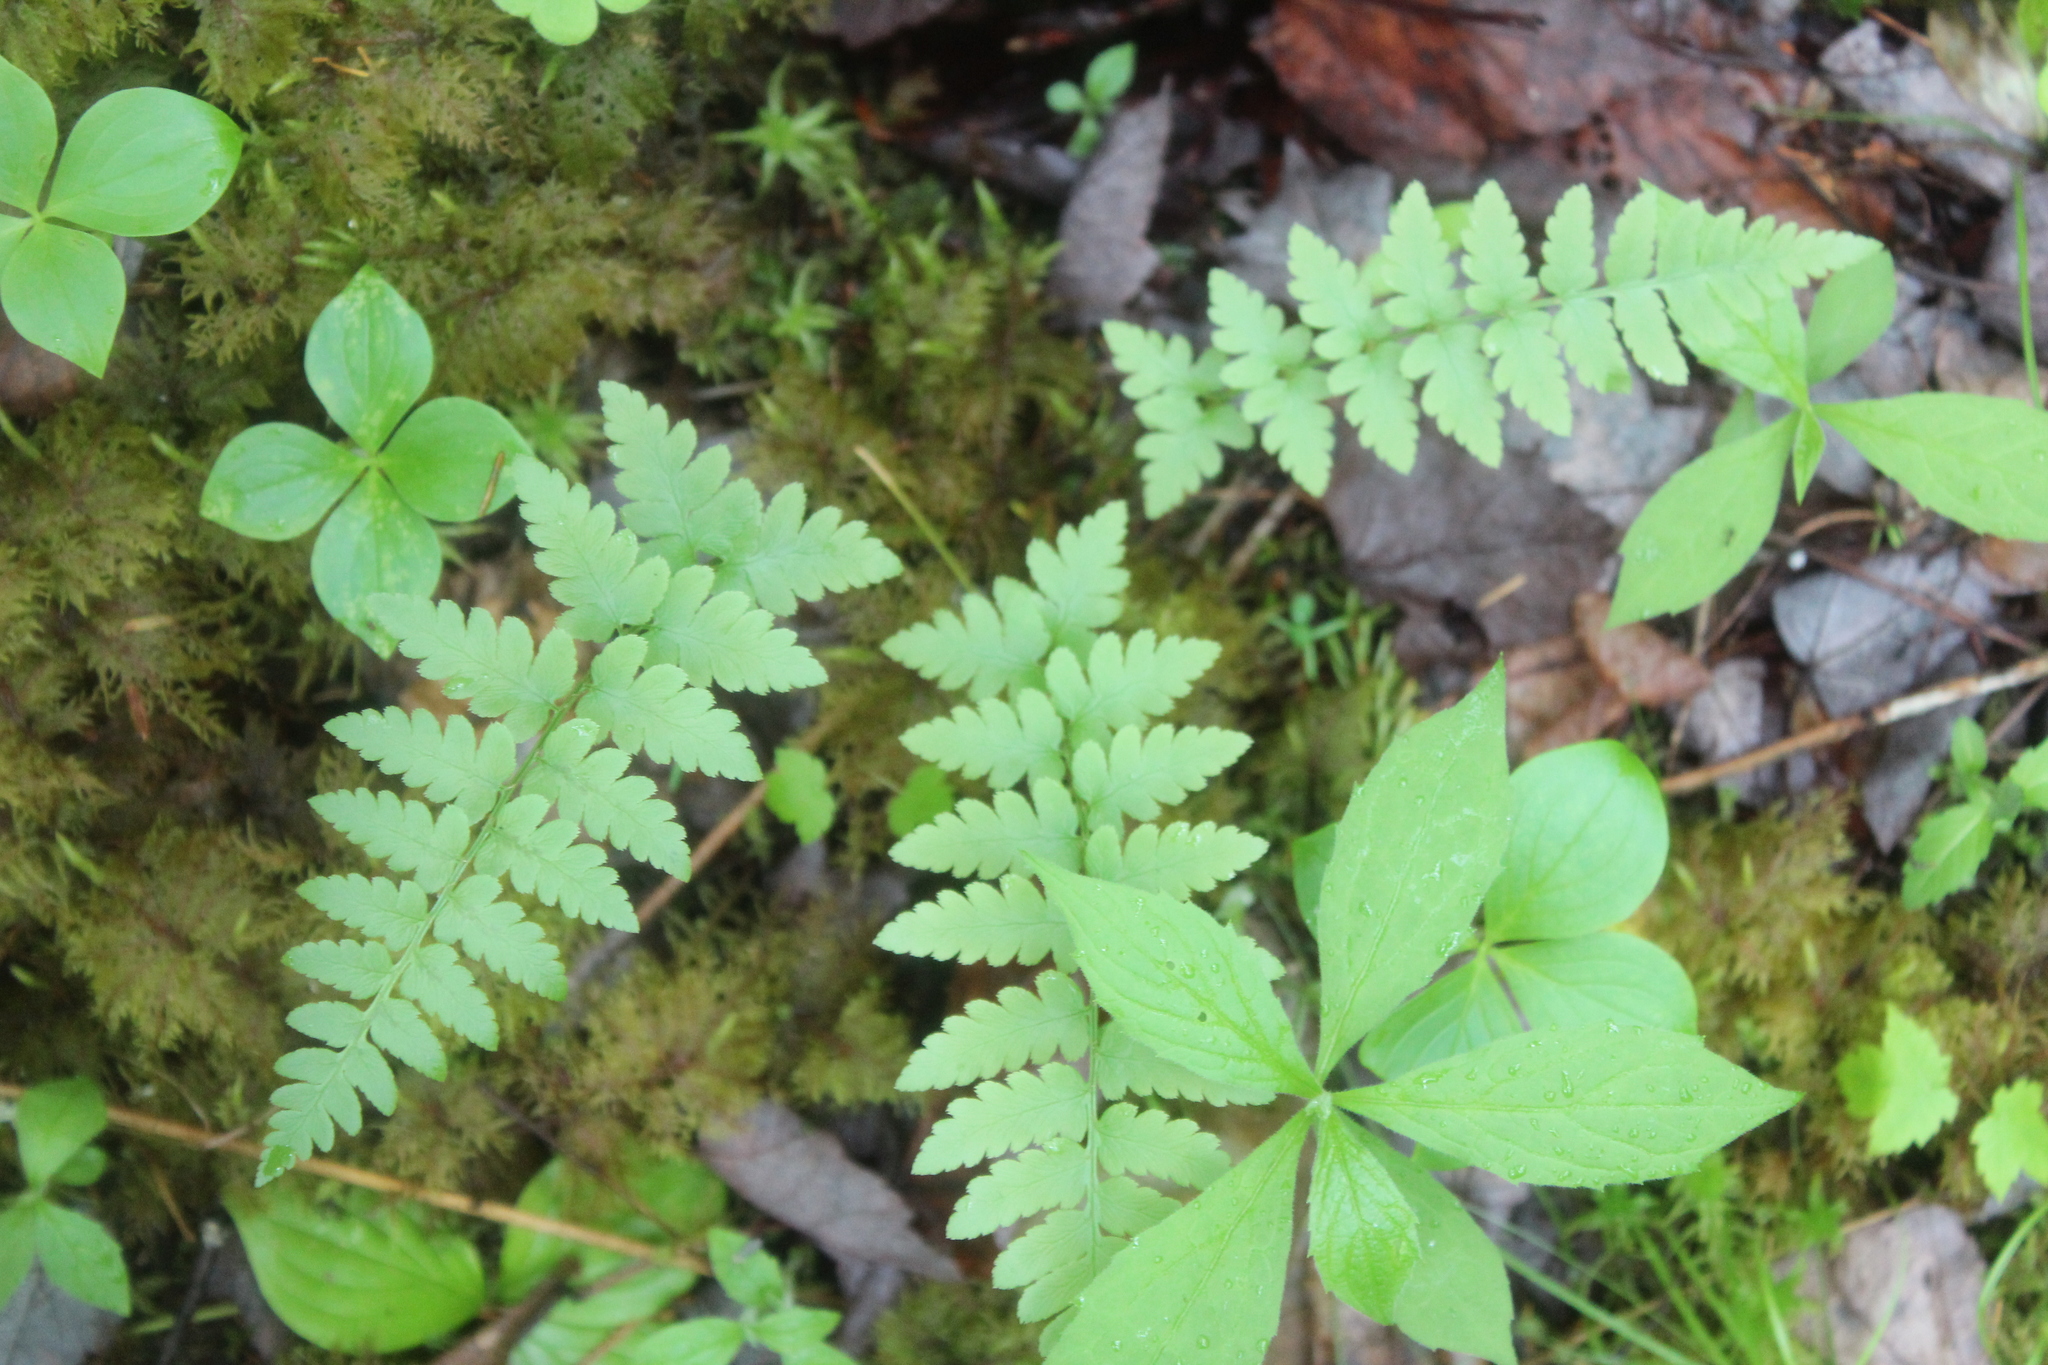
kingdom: Plantae
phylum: Tracheophyta
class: Polypodiopsida
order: Polypodiales
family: Dryopteridaceae
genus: Dryopteris
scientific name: Dryopteris cristata
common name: Crested wood fern
